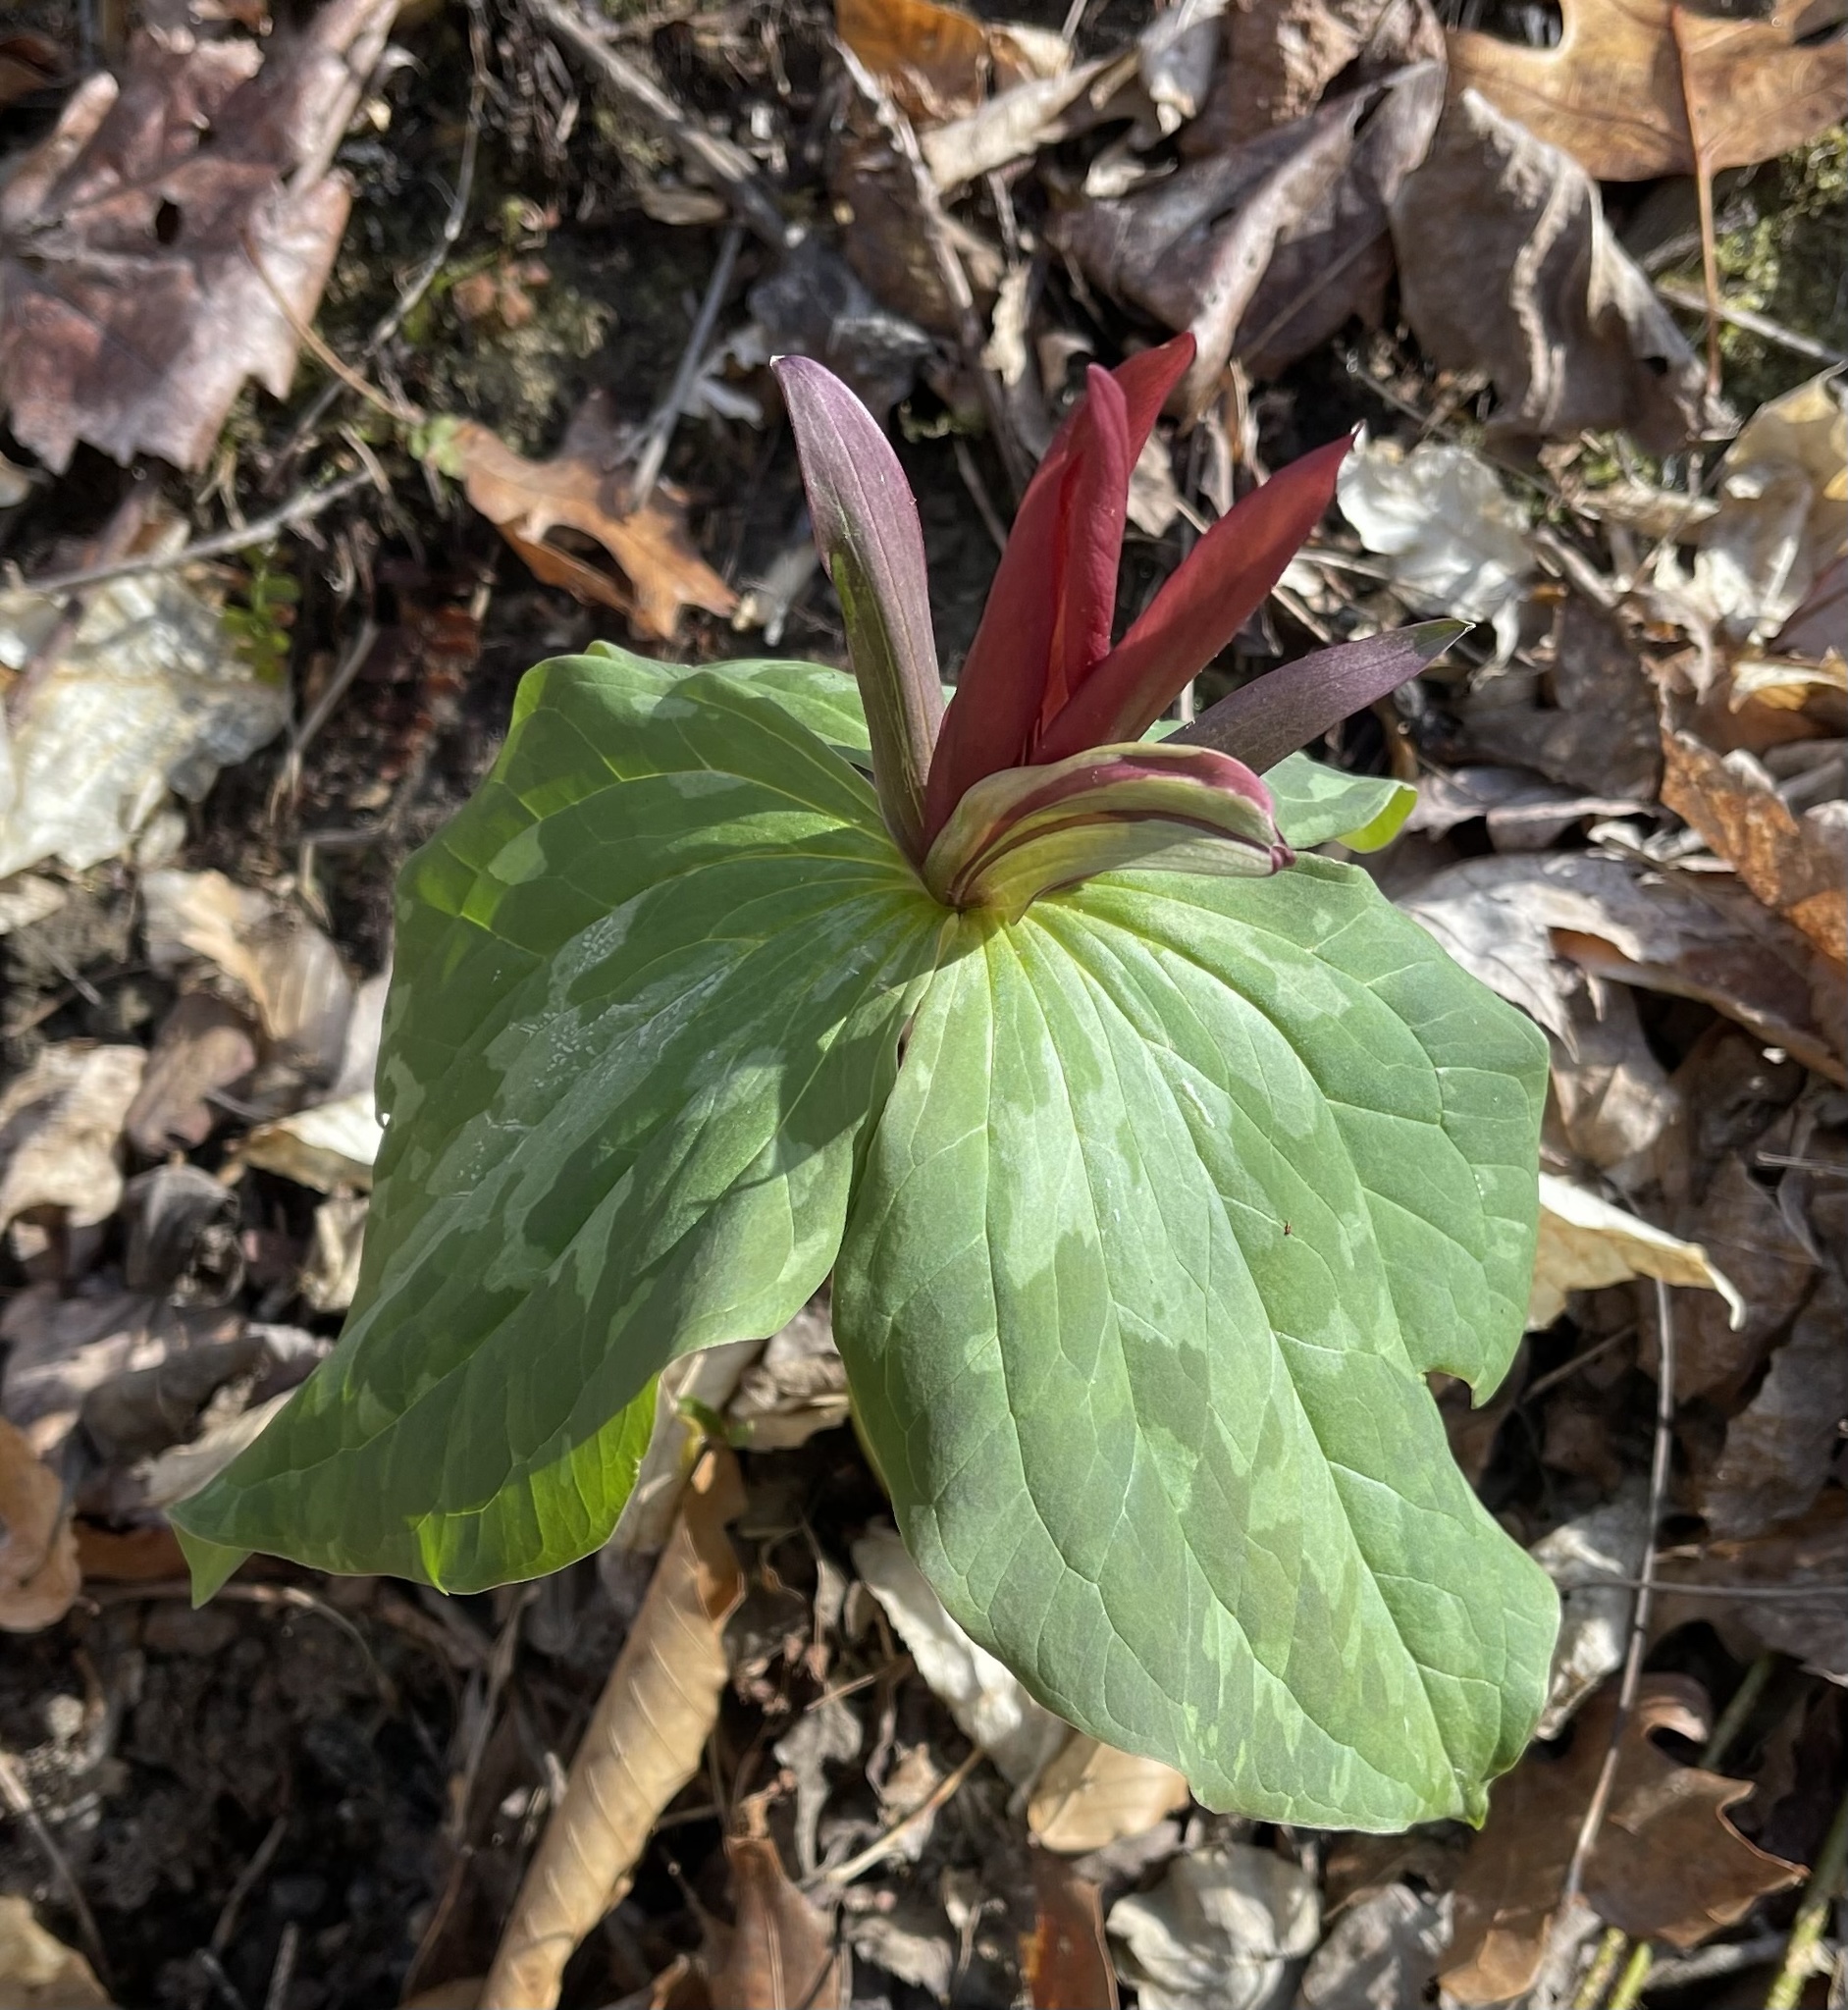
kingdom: Plantae
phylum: Tracheophyta
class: Liliopsida
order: Liliales
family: Melanthiaceae
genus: Trillium
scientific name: Trillium cuneatum
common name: Cuneate trillium
